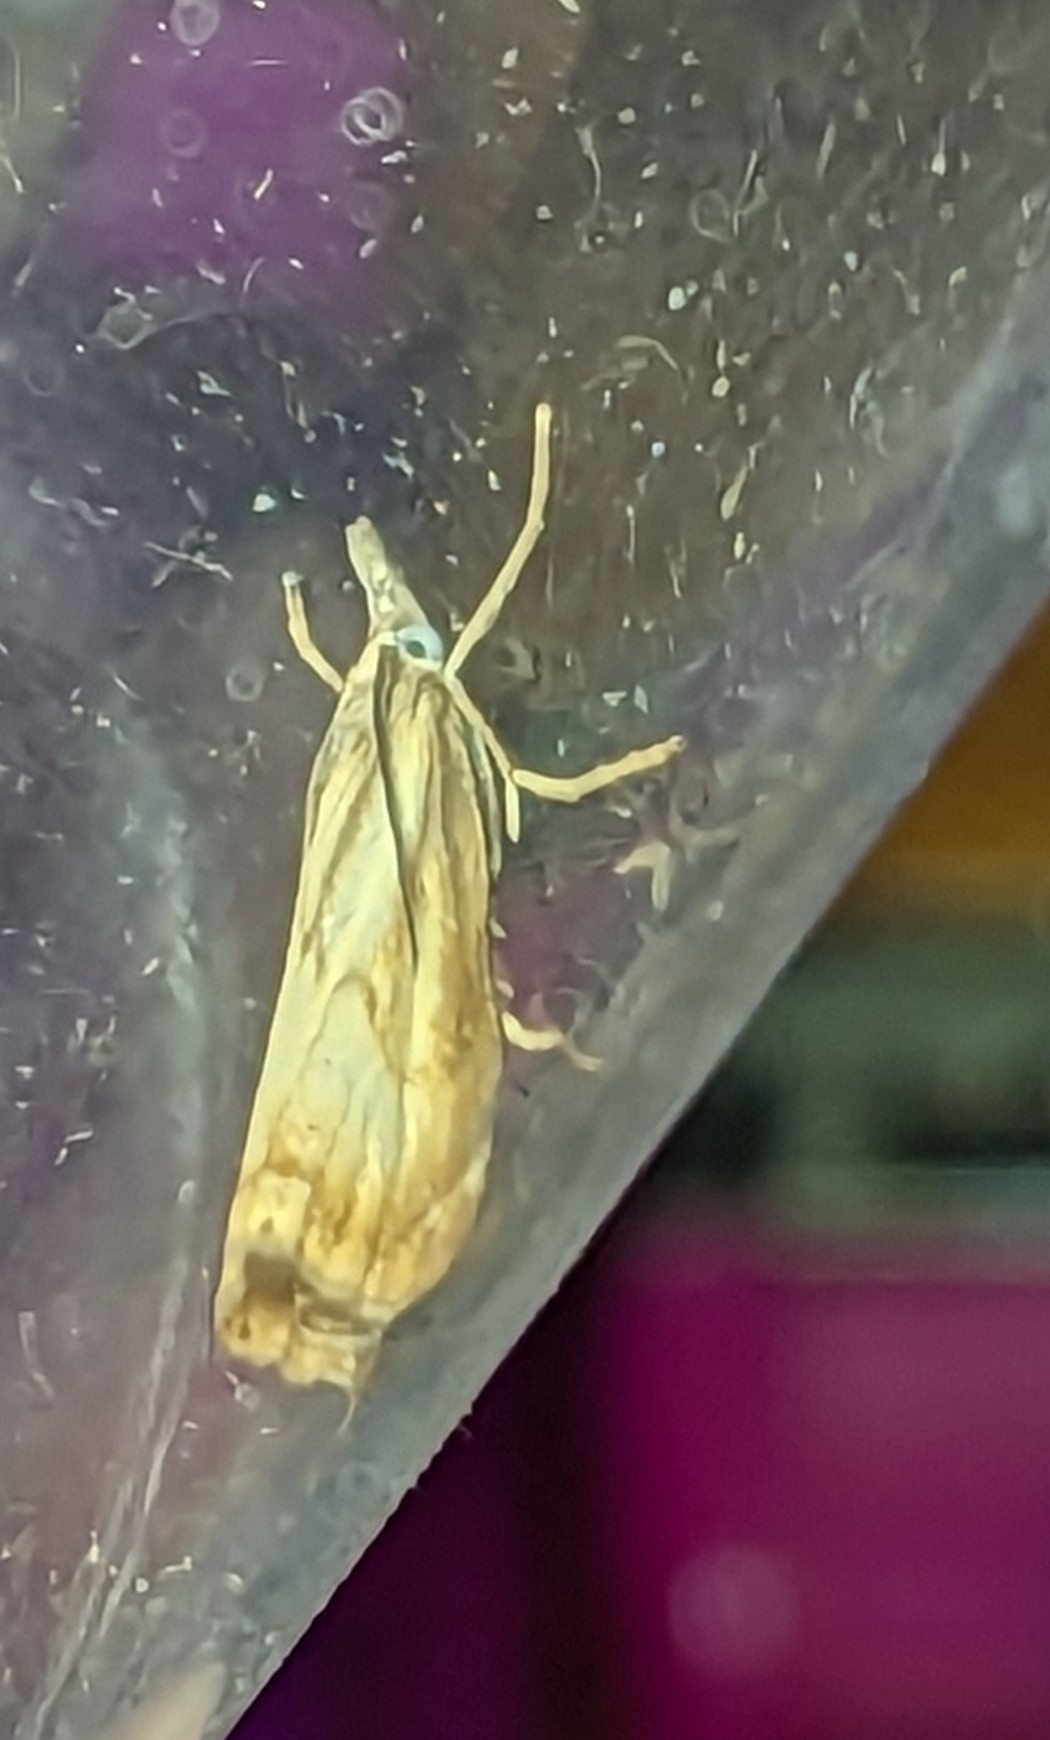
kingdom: Animalia
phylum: Arthropoda
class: Insecta
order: Lepidoptera
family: Crambidae
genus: Chrysoteuchia
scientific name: Chrysoteuchia culmella
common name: Garden grass-veneer
